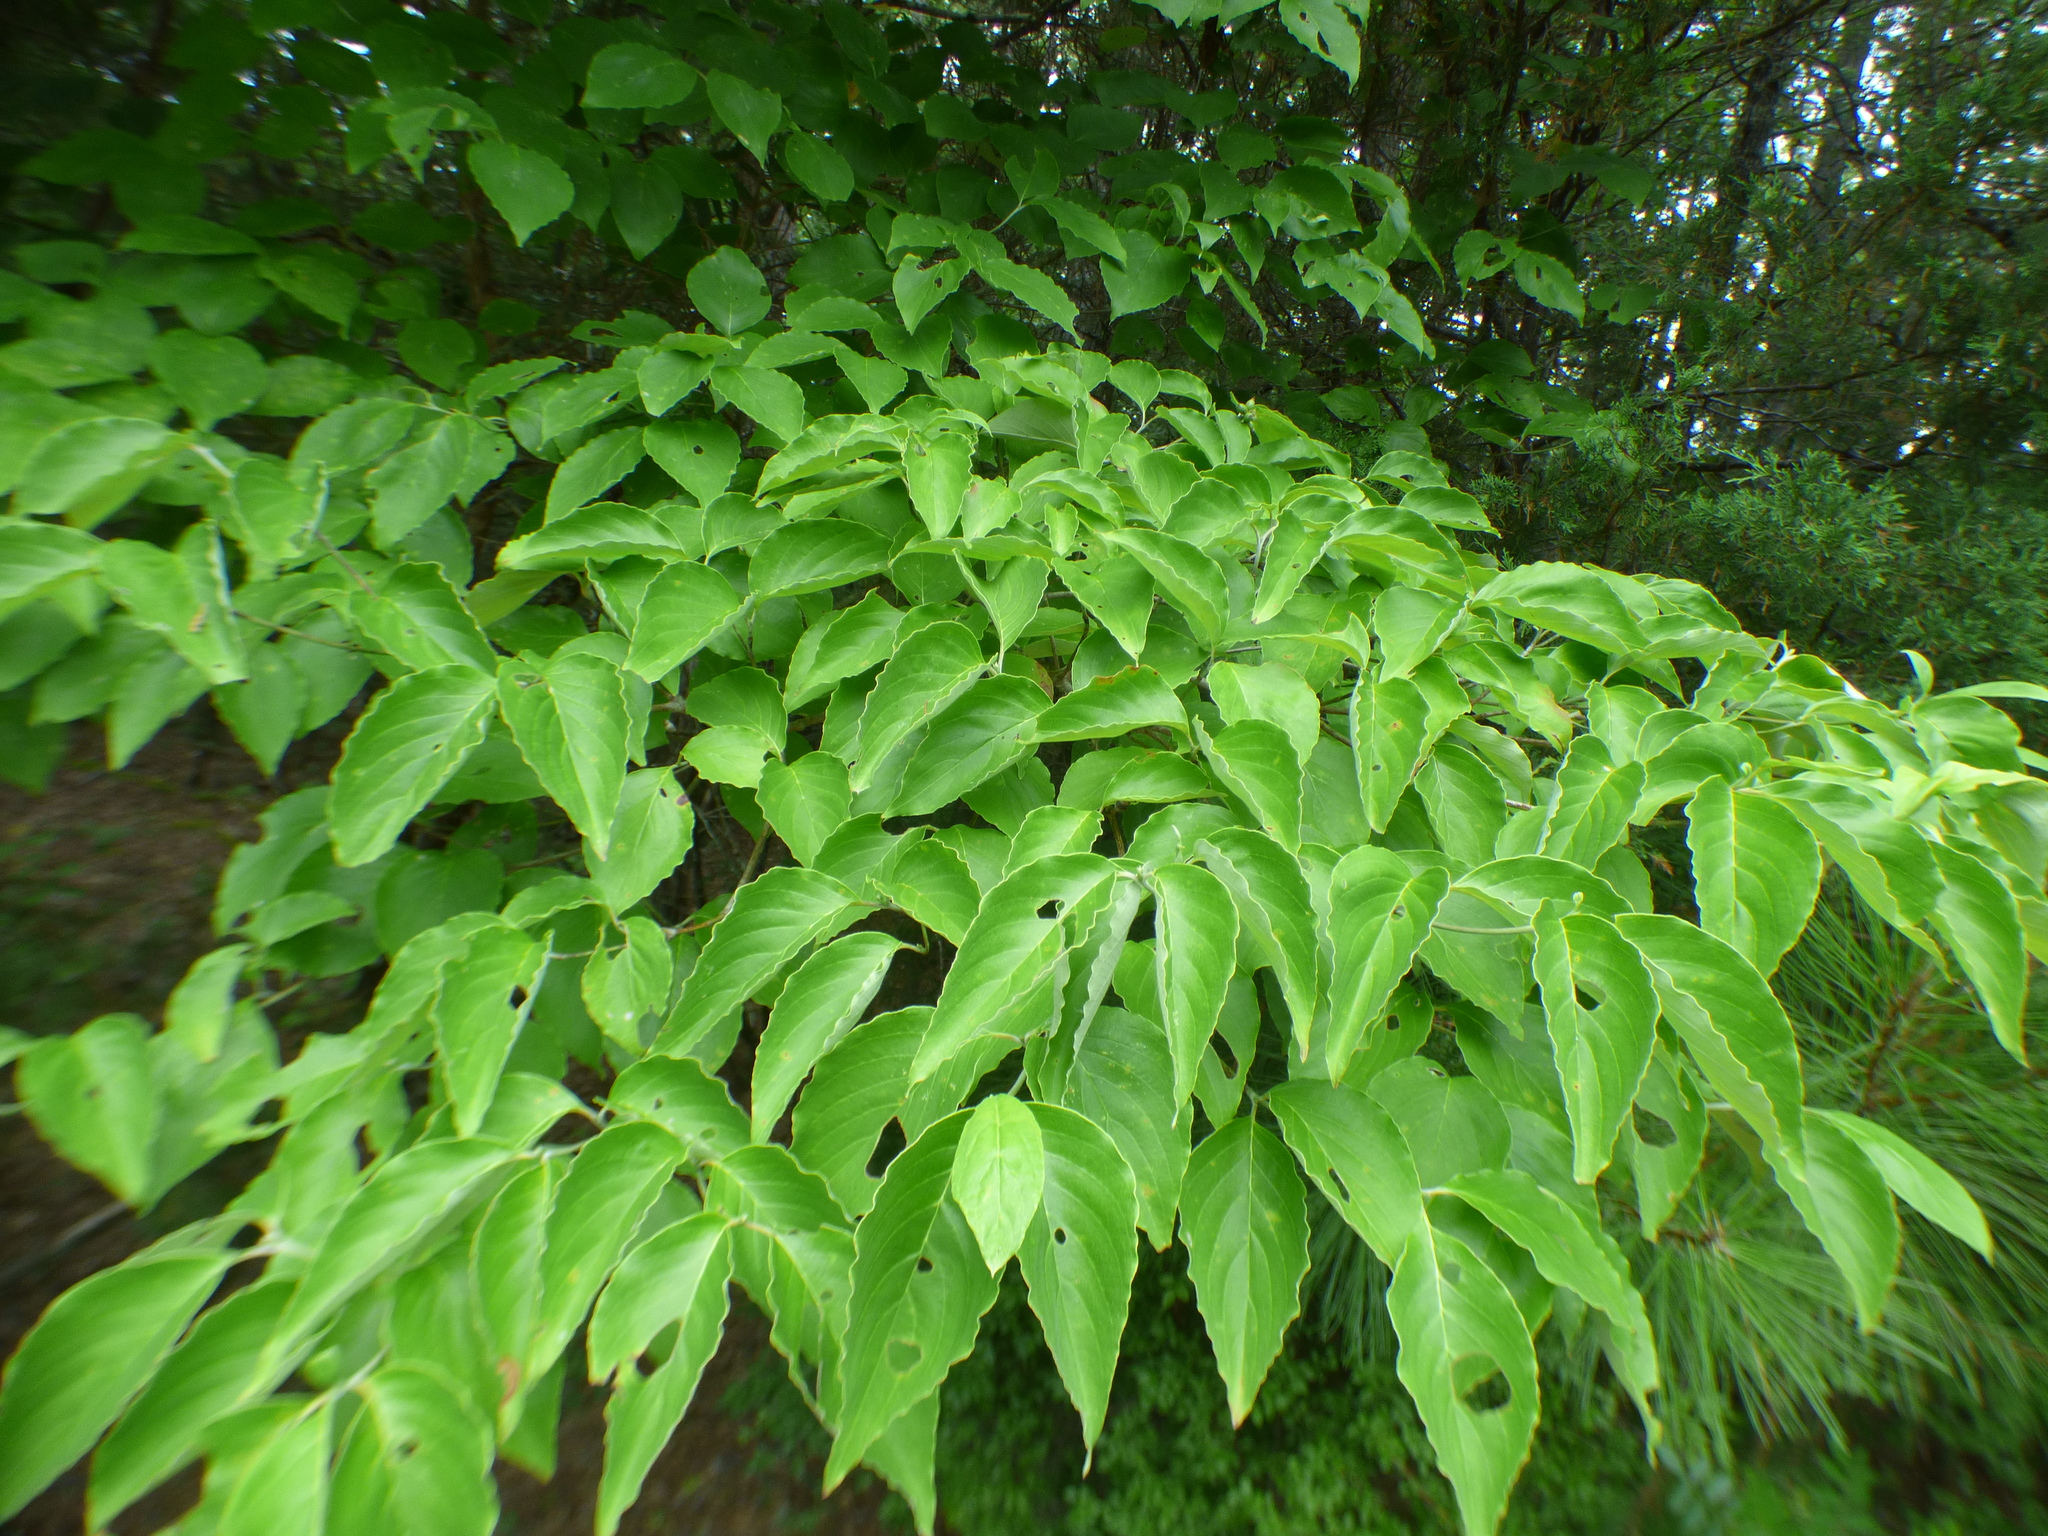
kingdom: Plantae
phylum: Tracheophyta
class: Magnoliopsida
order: Cornales
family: Cornaceae
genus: Cornus
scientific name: Cornus florida
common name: Flowering dogwood
